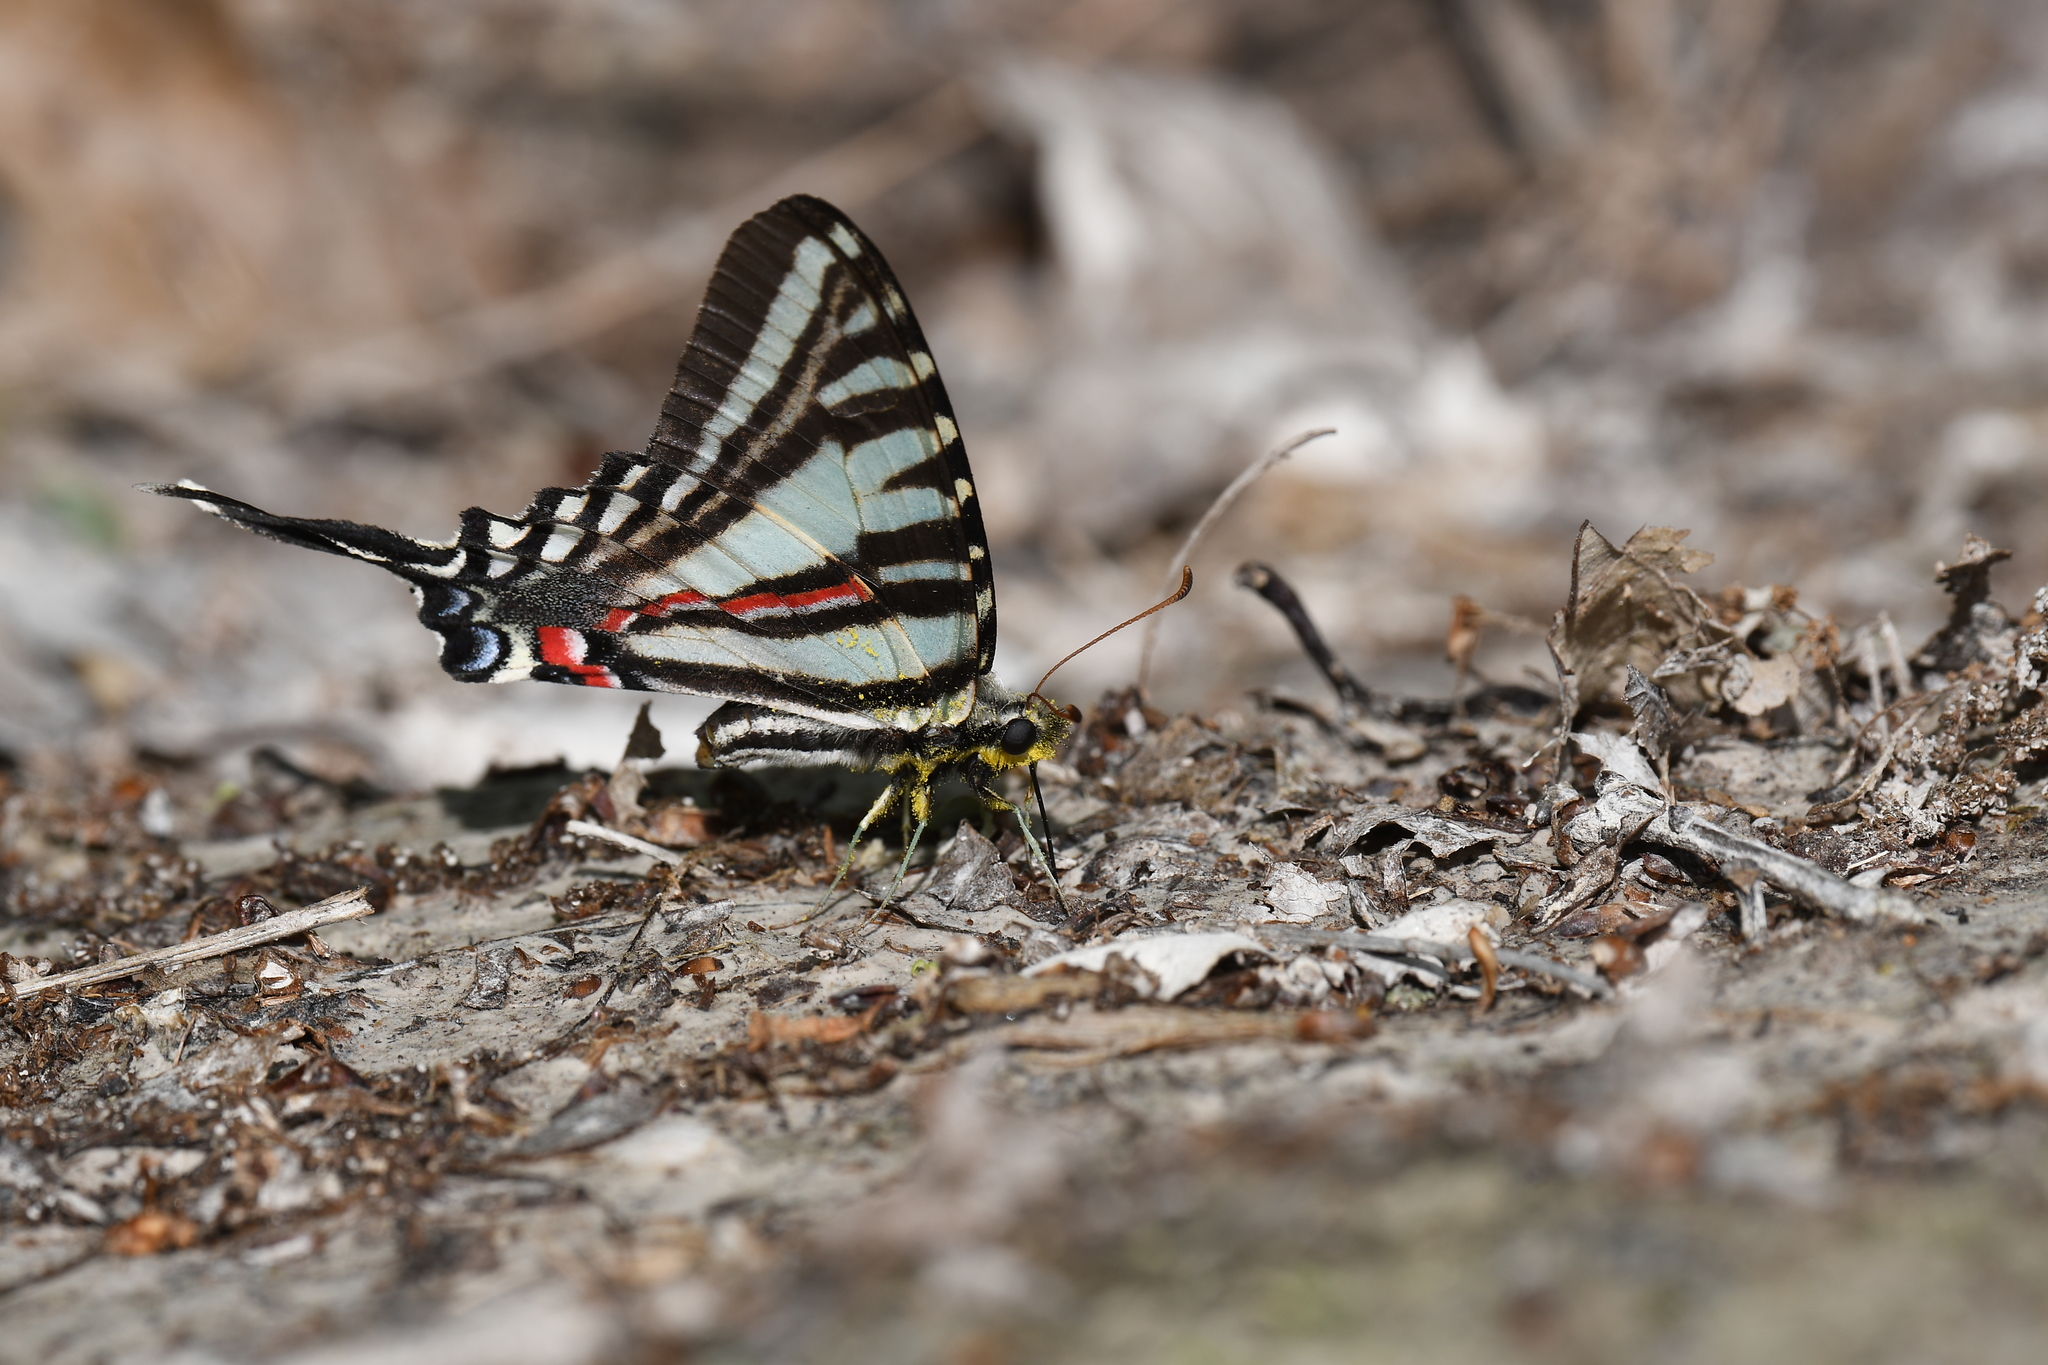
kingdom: Animalia
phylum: Arthropoda
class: Insecta
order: Lepidoptera
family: Papilionidae
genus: Protographium
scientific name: Protographium marcellus
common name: Zebra swallowtail
